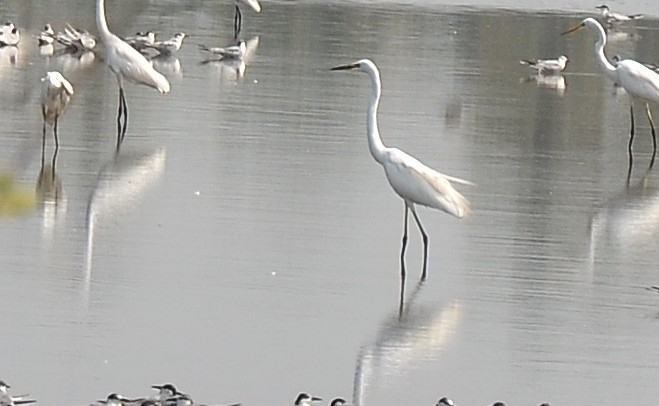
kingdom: Animalia
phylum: Chordata
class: Aves
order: Pelecaniformes
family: Ardeidae
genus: Ardea
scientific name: Ardea alba
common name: Great egret
